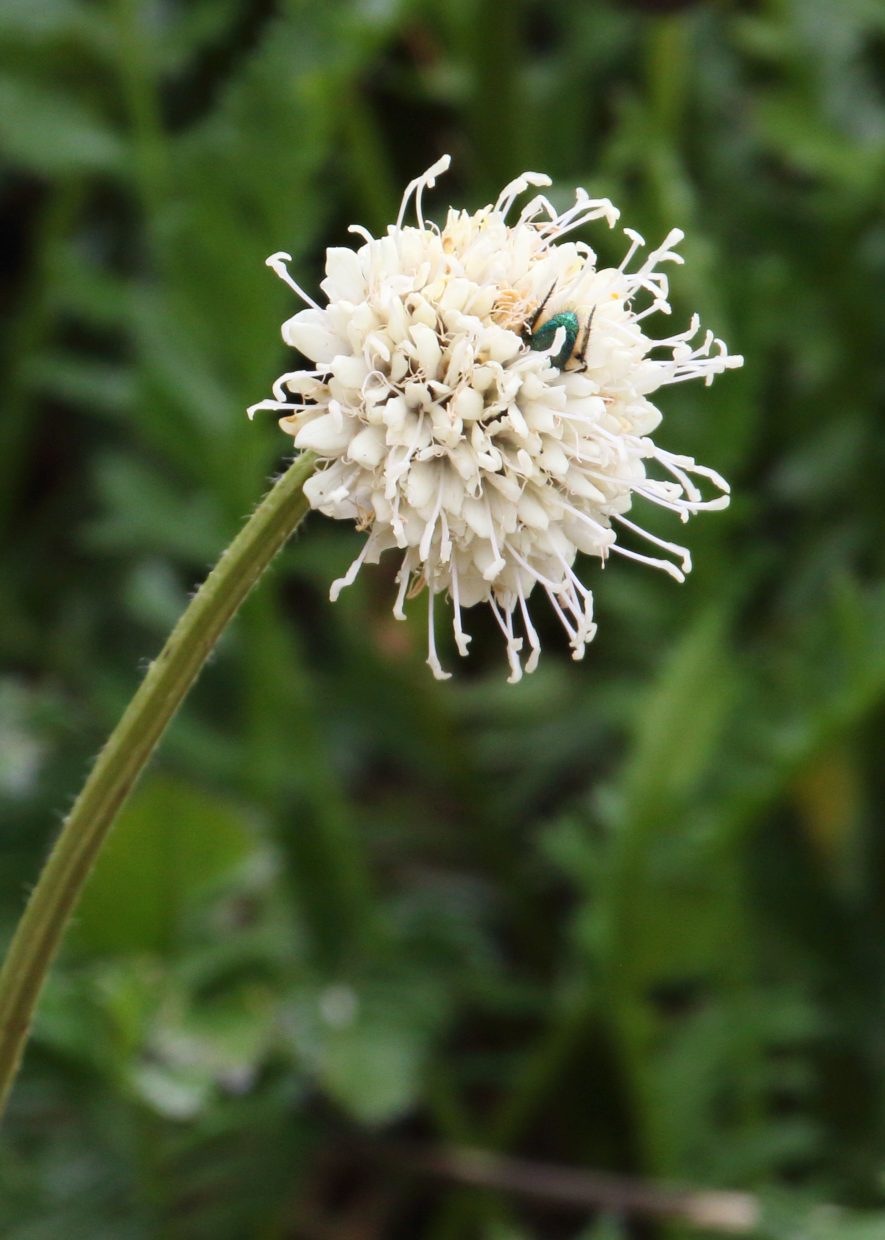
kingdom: Plantae
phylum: Tracheophyta
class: Magnoliopsida
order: Dipsacales
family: Caprifoliaceae
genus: Cephalaria
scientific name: Cephalaria galpiniana
